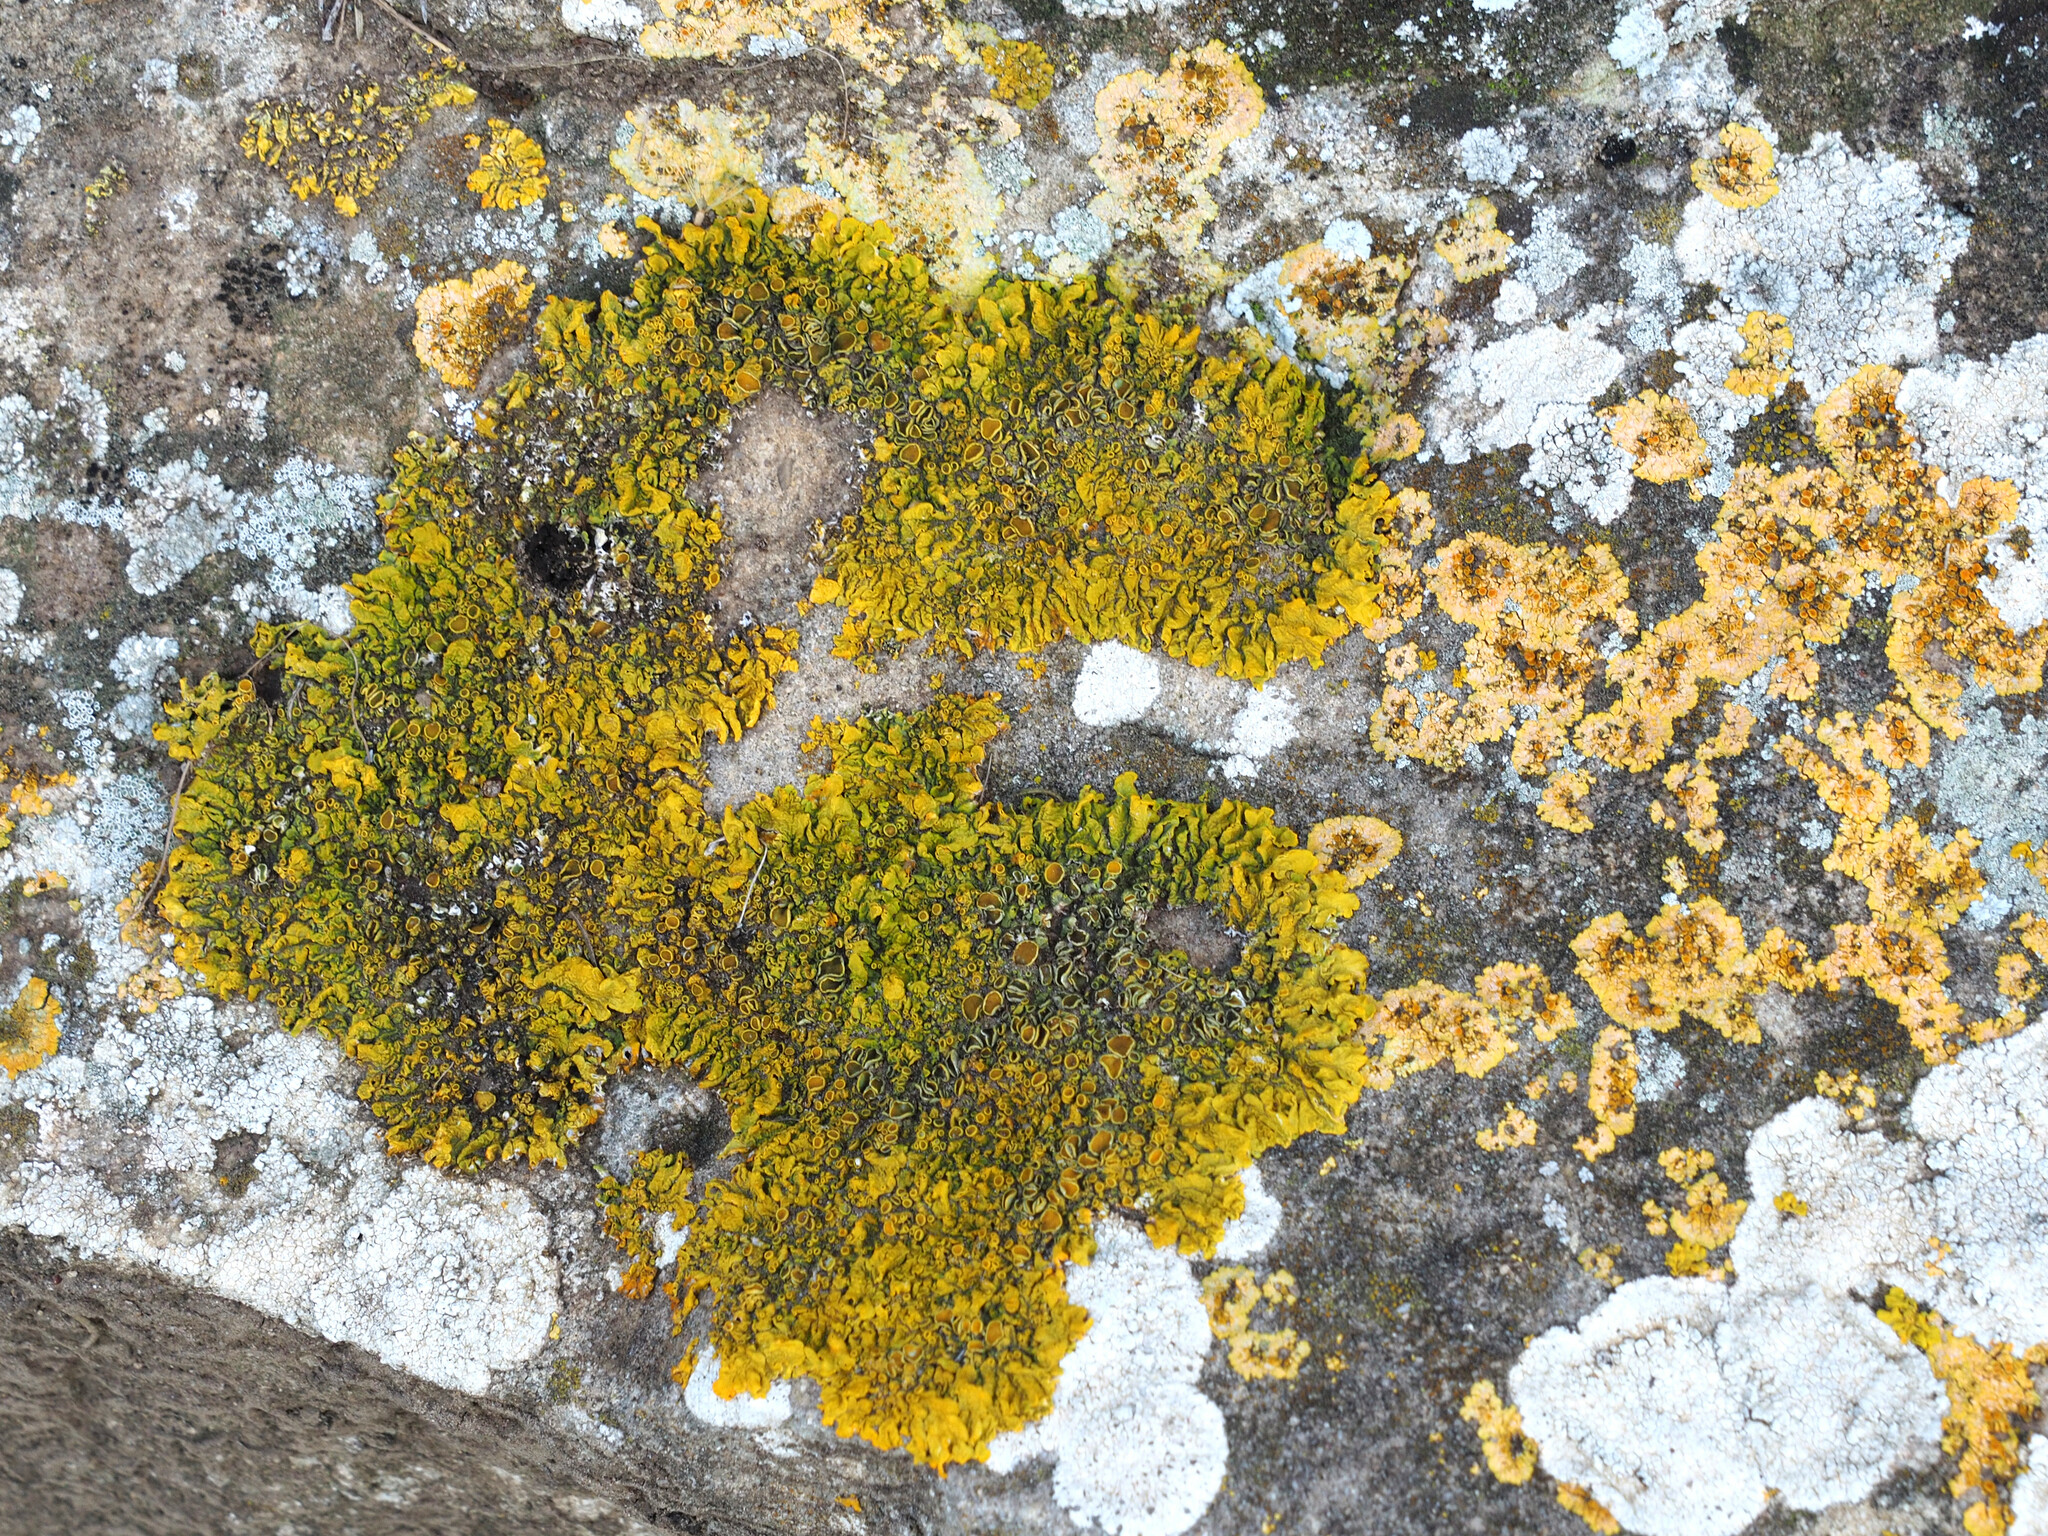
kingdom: Fungi
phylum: Ascomycota
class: Lecanoromycetes
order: Teloschistales
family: Teloschistaceae
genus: Xanthoria
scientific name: Xanthoria parietina
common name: Common orange lichen
